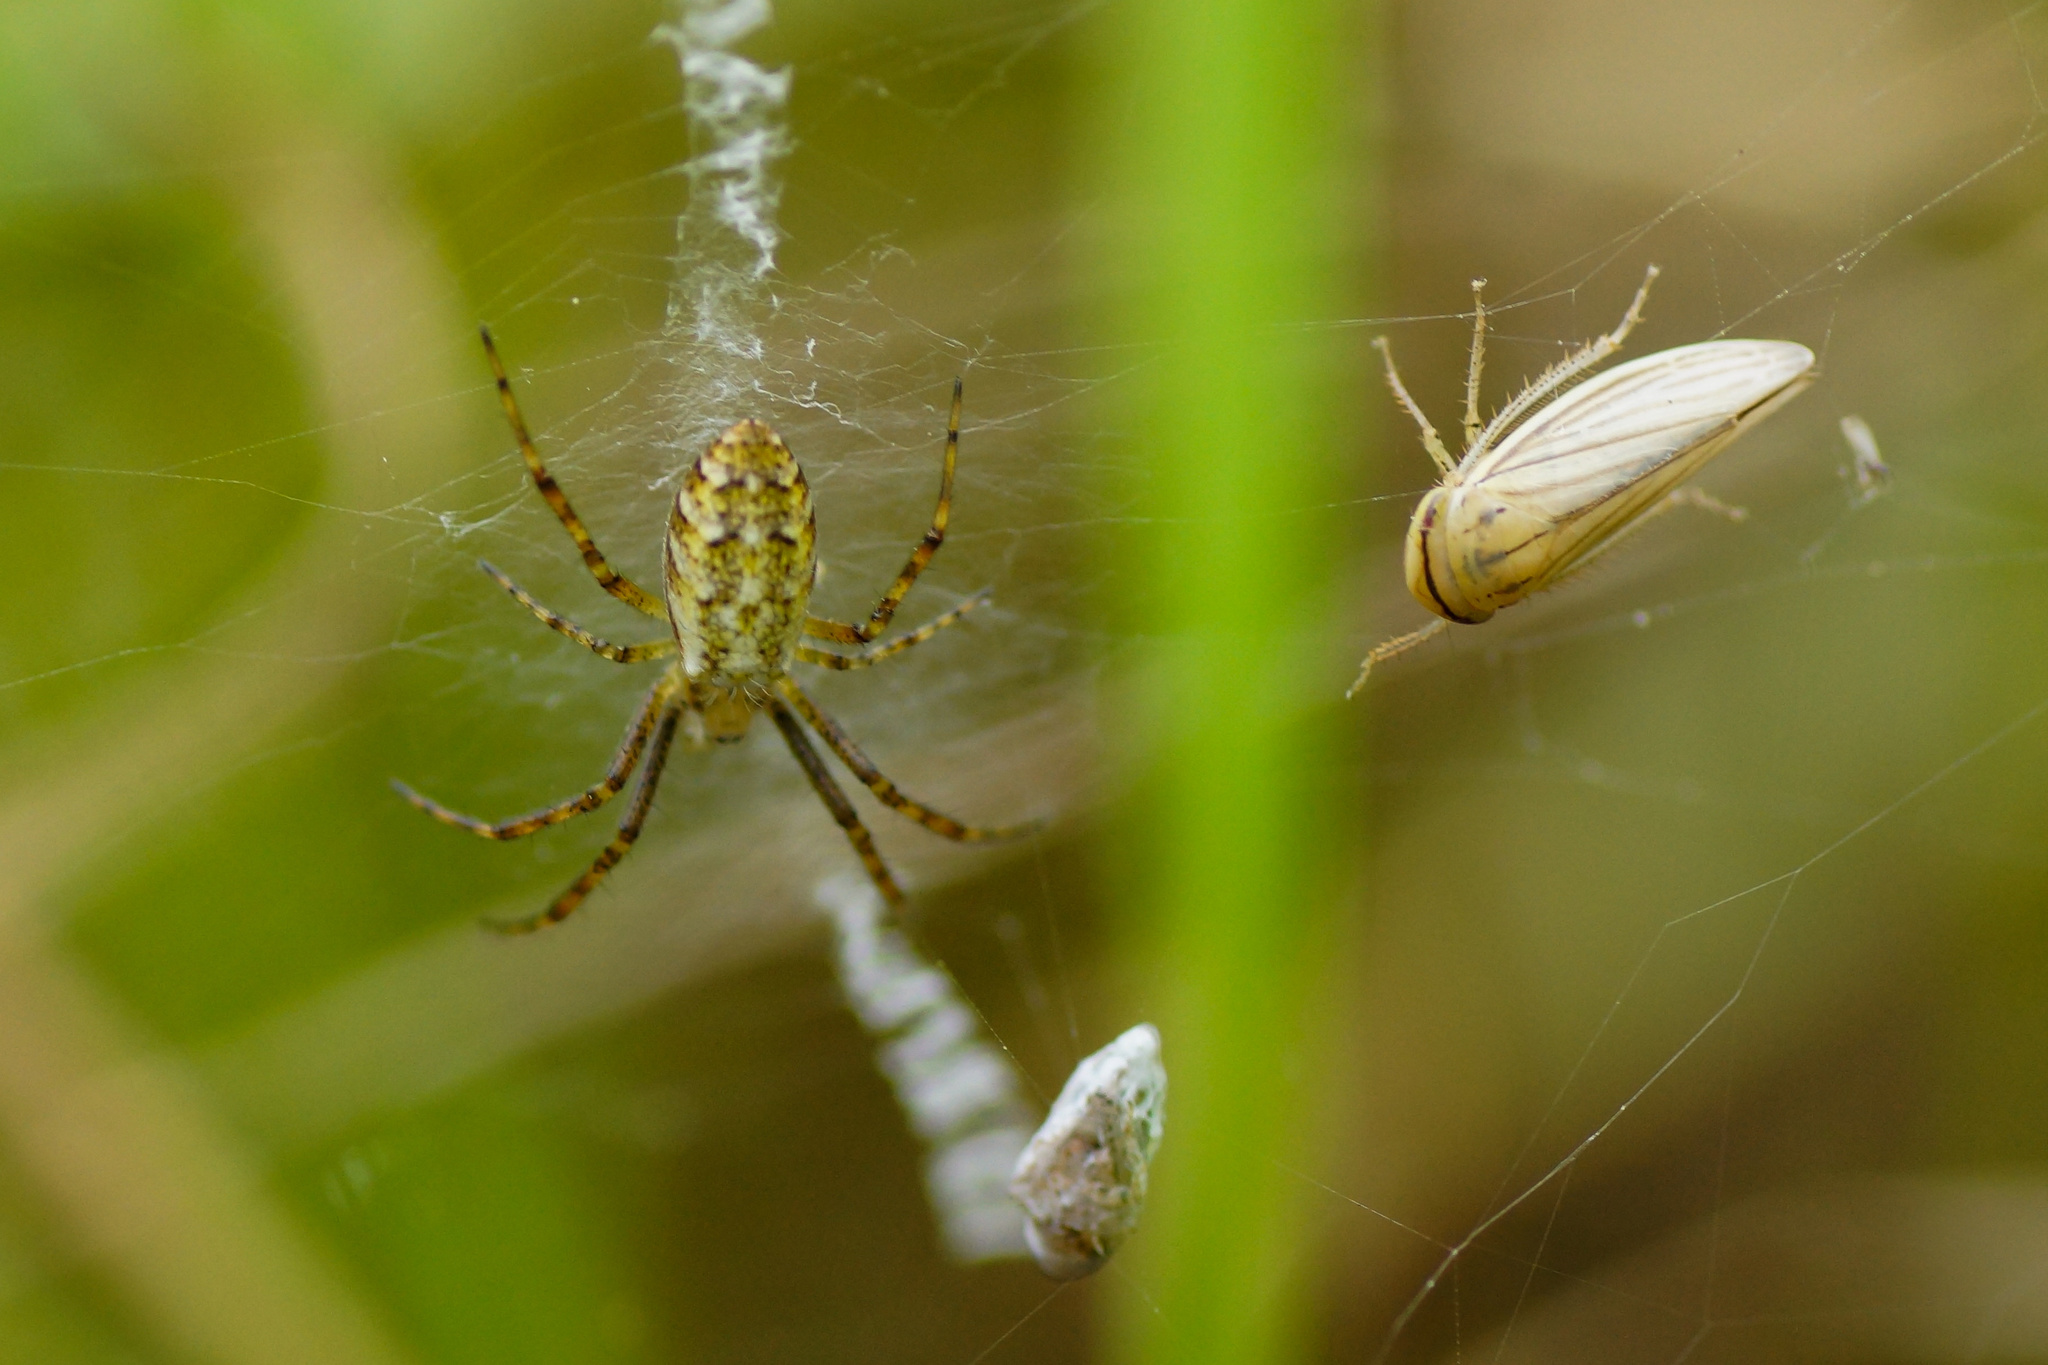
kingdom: Animalia
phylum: Arthropoda
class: Arachnida
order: Araneae
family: Araneidae
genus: Argiope
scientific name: Argiope bruennichi
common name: Wasp spider
